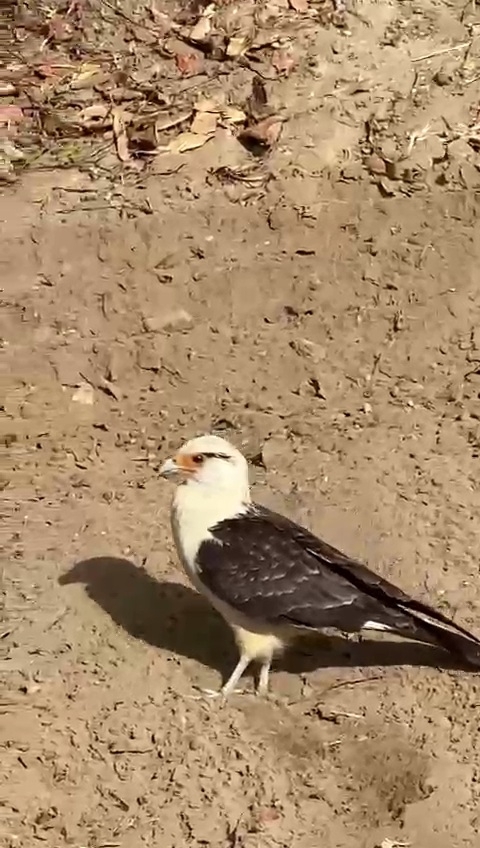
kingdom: Animalia
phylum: Chordata
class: Aves
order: Falconiformes
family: Falconidae
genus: Daptrius
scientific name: Daptrius
